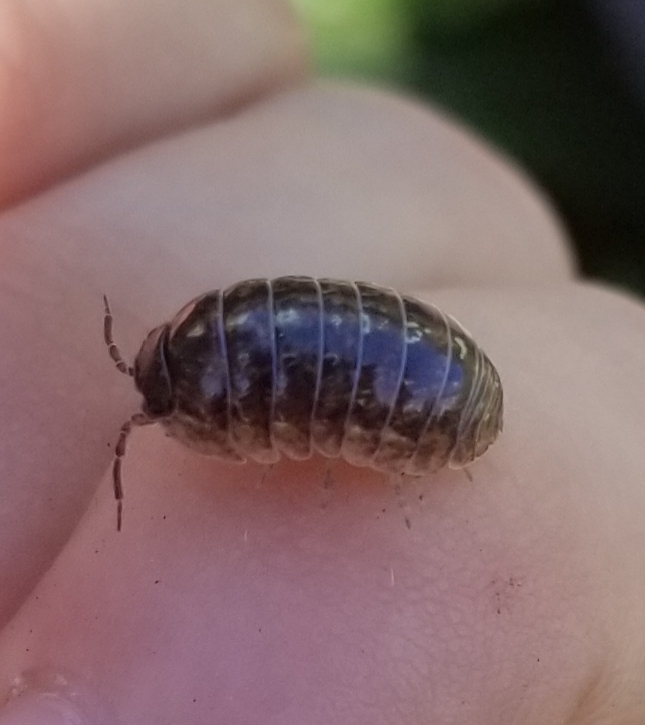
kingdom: Animalia
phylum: Arthropoda
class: Malacostraca
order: Isopoda
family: Armadillidiidae
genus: Armadillidium
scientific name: Armadillidium vulgare
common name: Common pill woodlouse
